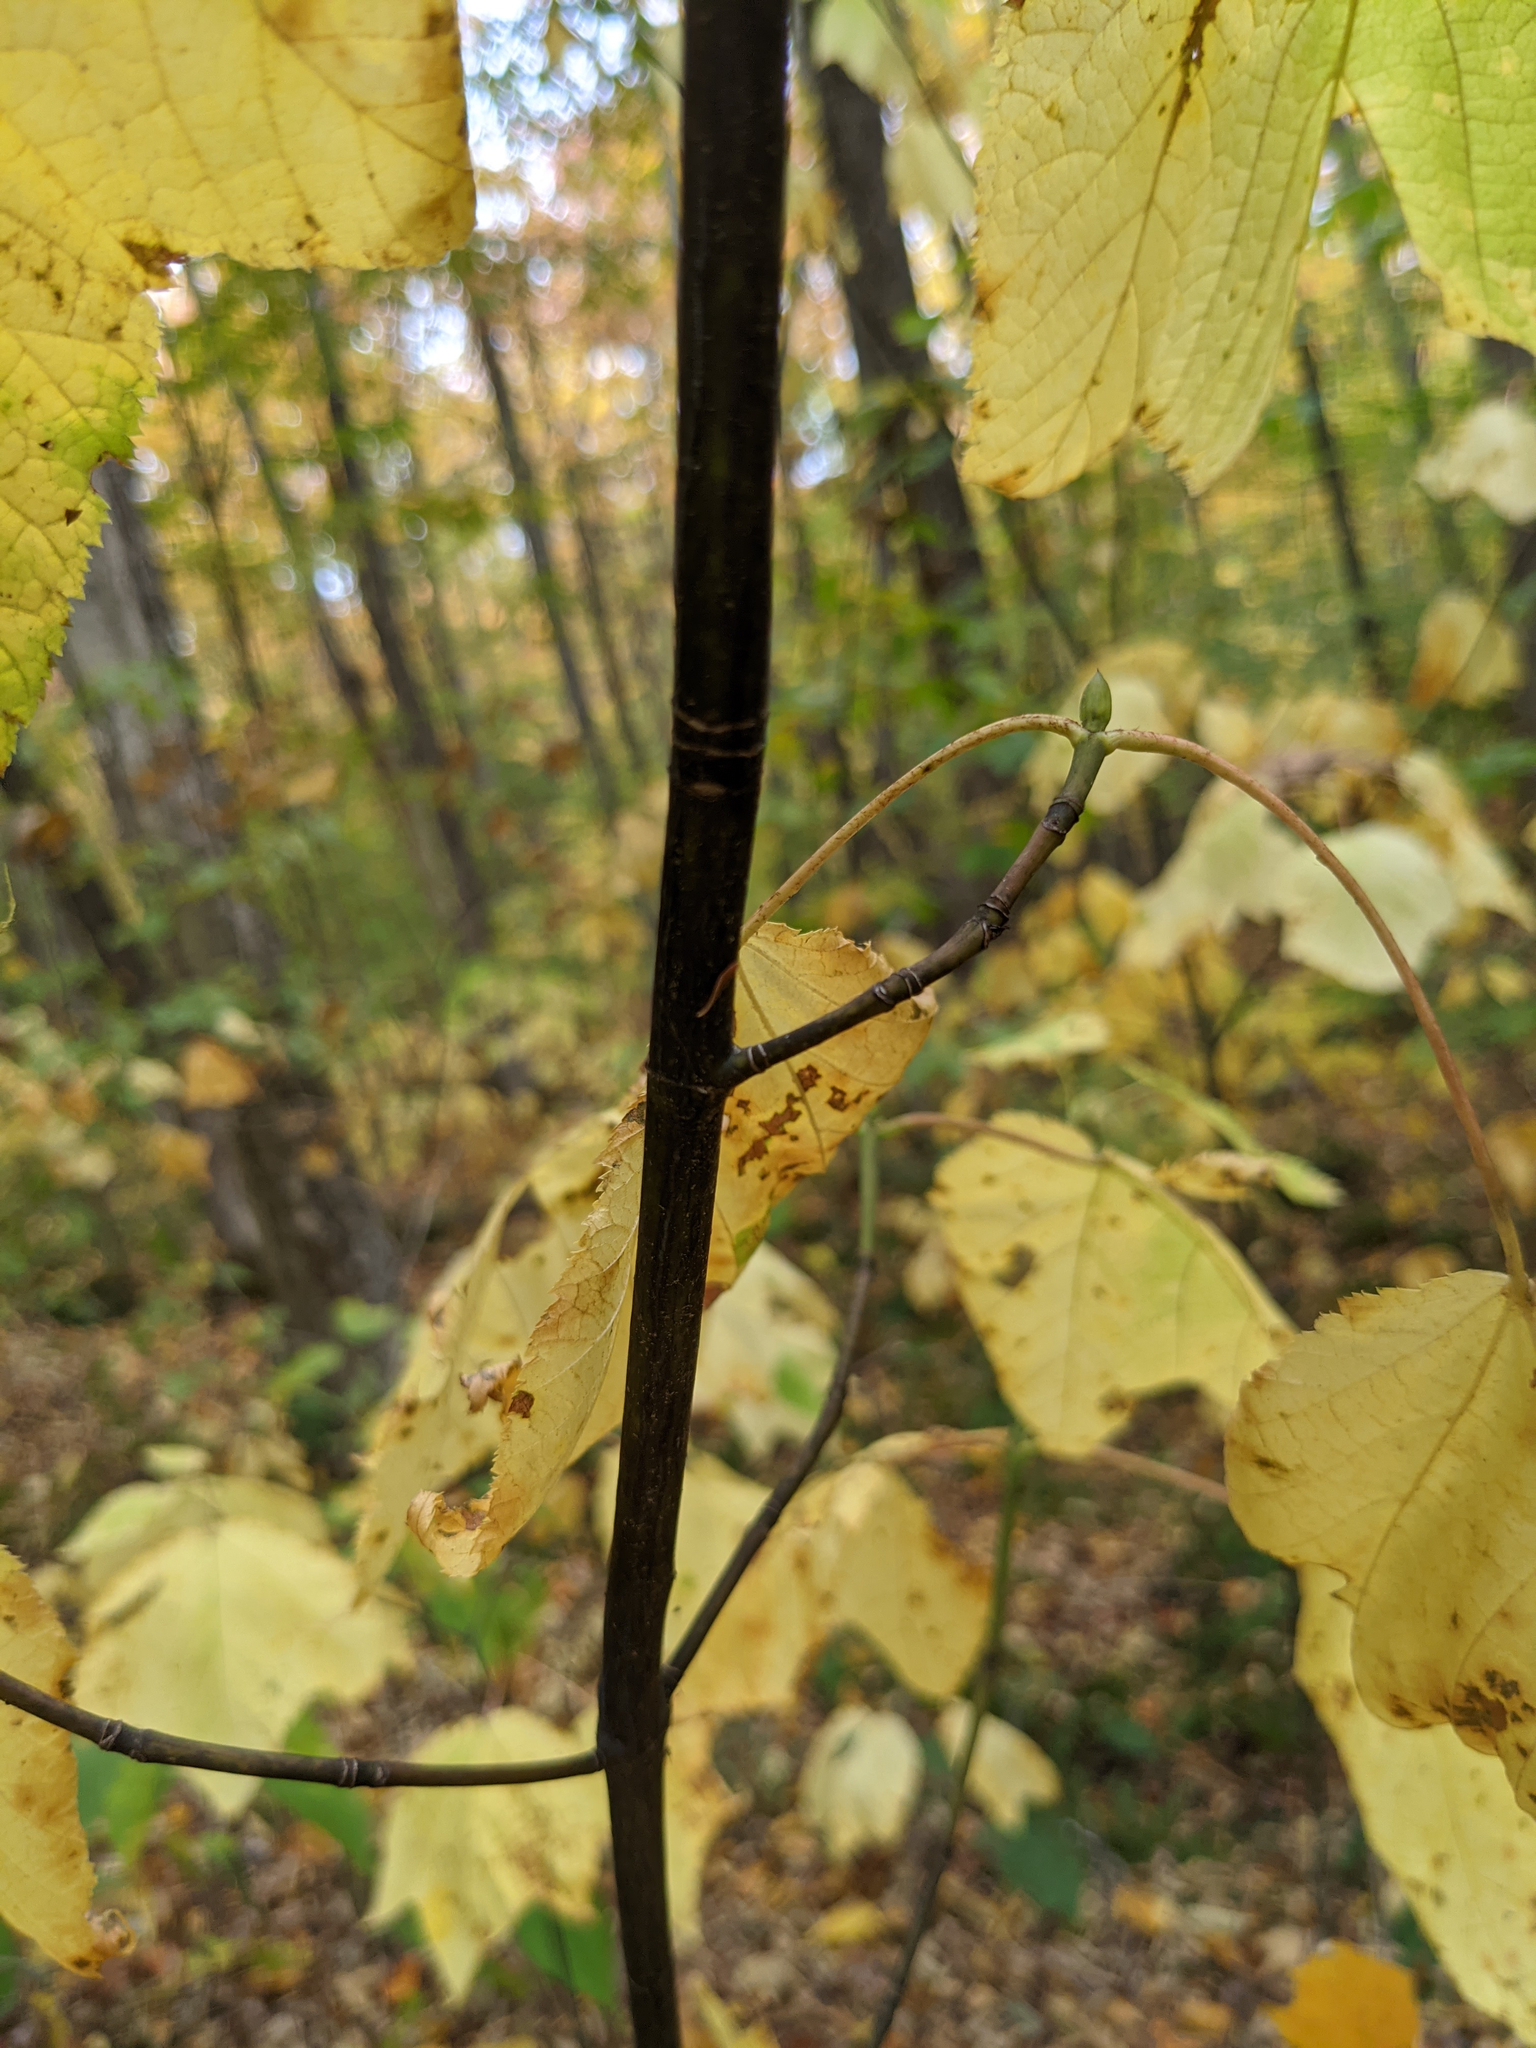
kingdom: Plantae
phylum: Tracheophyta
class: Magnoliopsida
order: Sapindales
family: Sapindaceae
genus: Acer
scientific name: Acer pensylvanicum
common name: Moosewood
